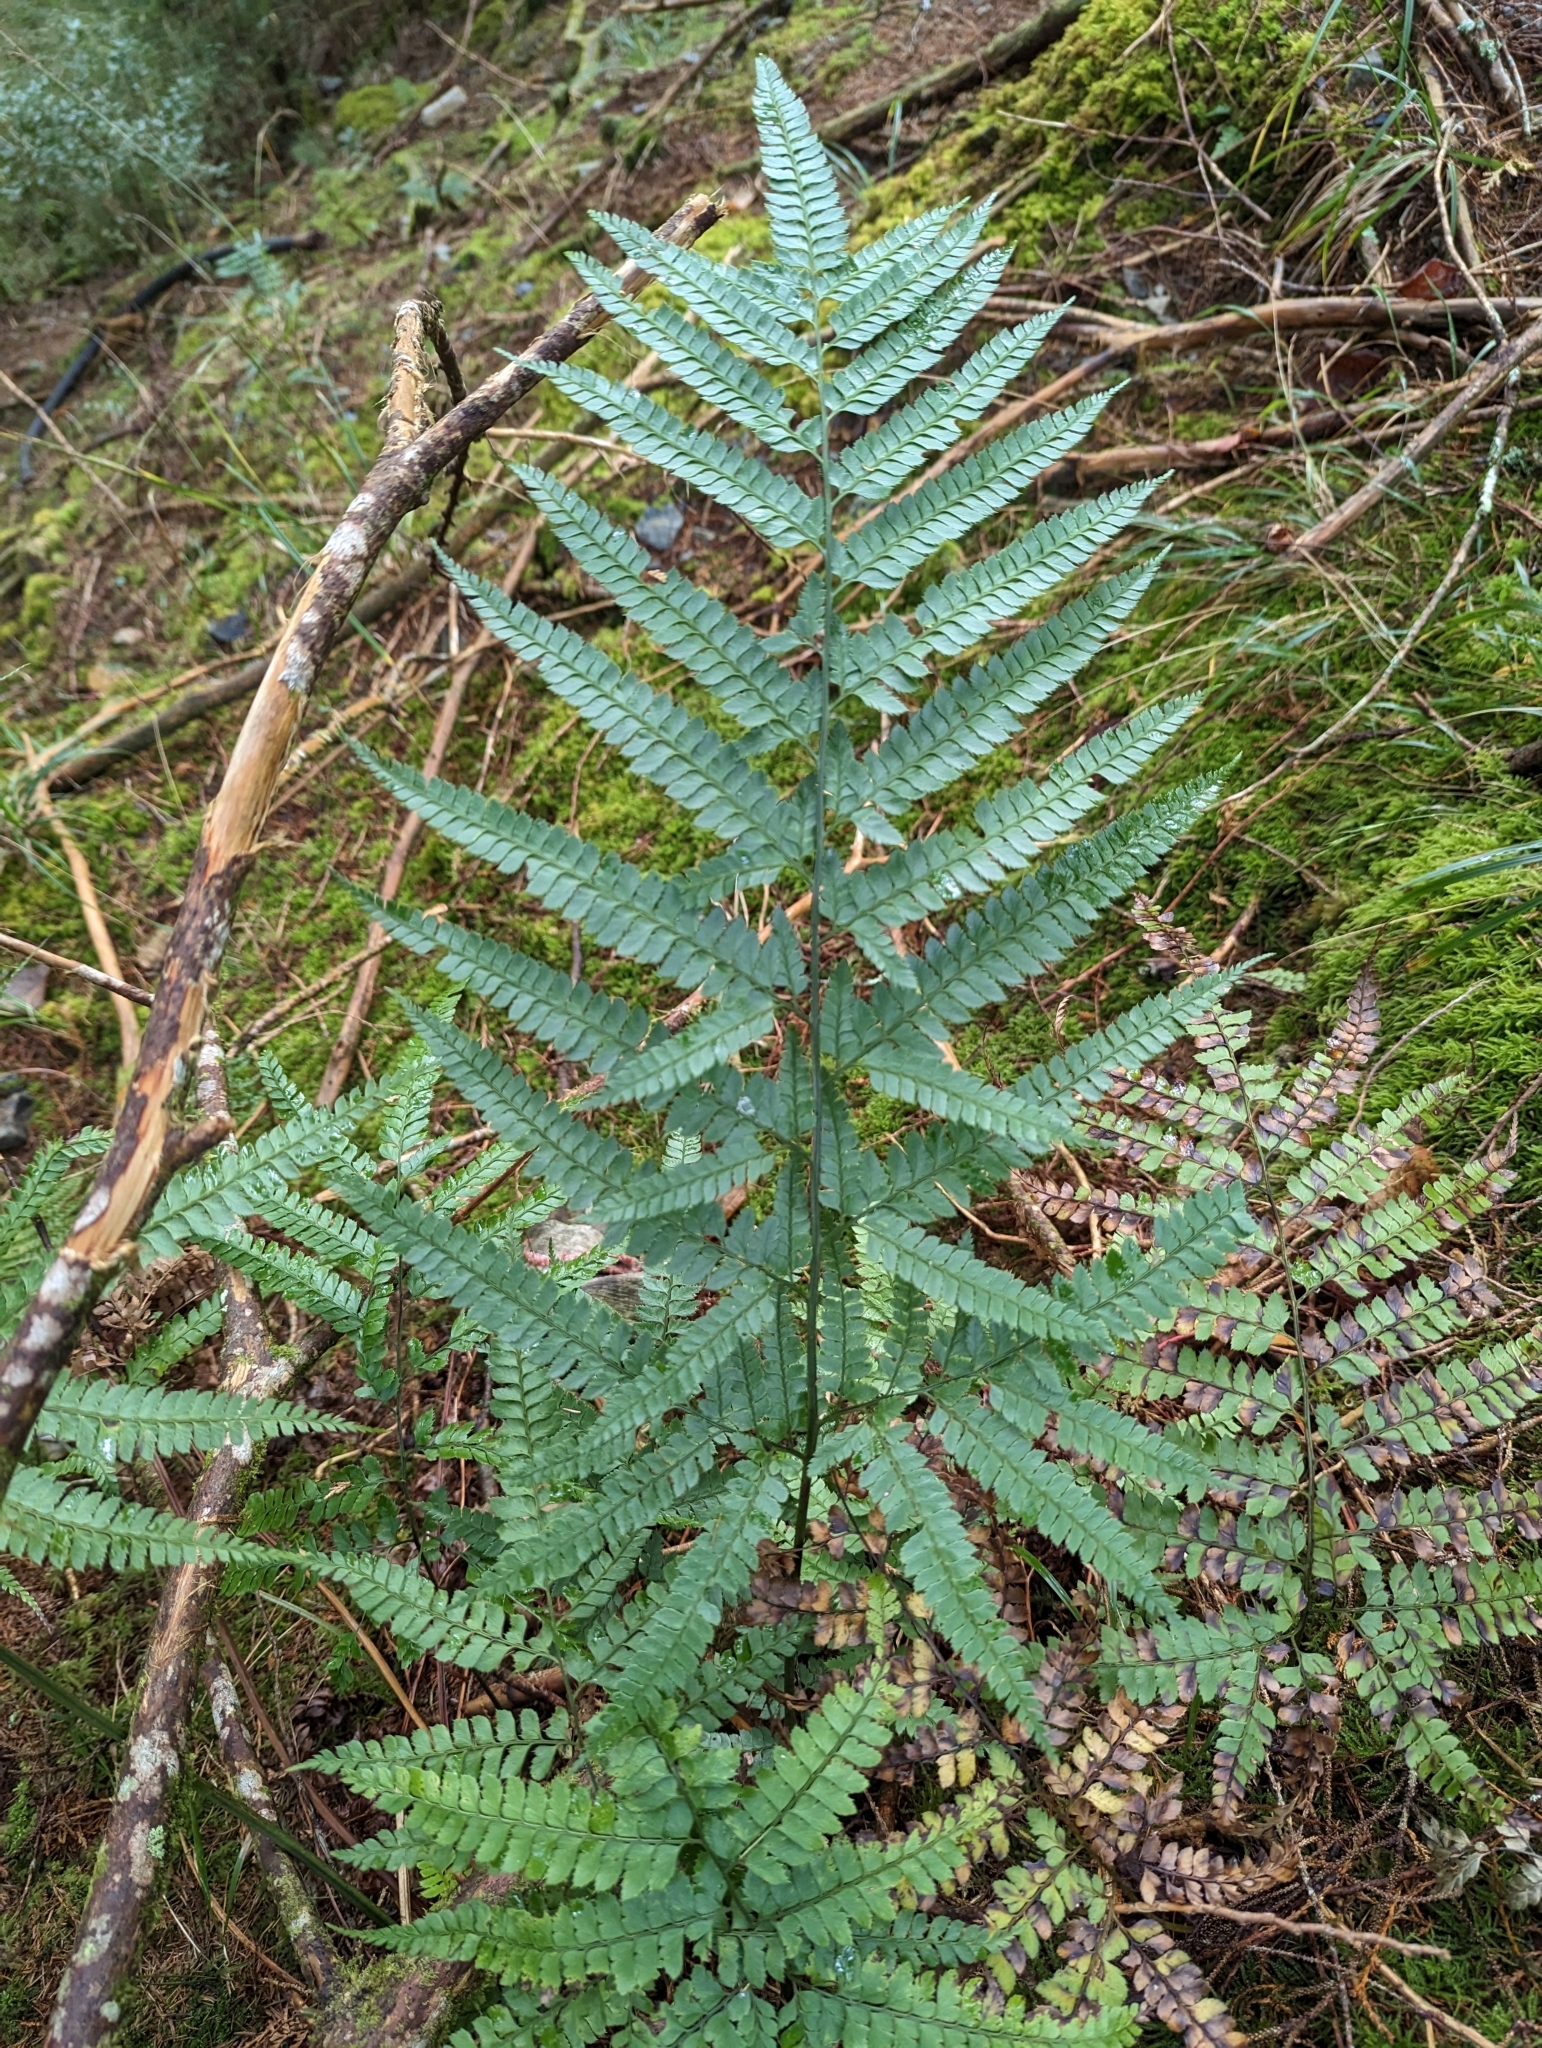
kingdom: Plantae
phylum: Tracheophyta
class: Polypodiopsida
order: Polypodiales
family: Dryopteridaceae
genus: Arachniodes
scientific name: Arachniodes rhomboidea
